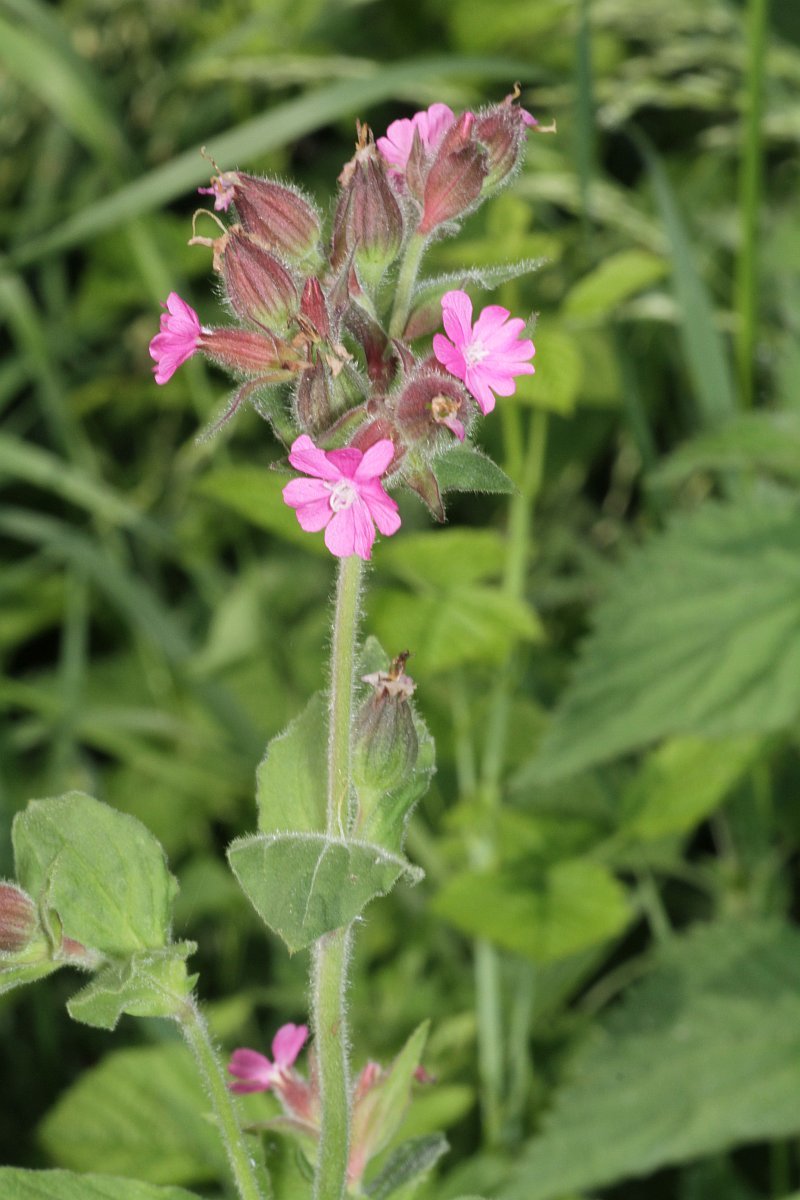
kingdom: Plantae
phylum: Tracheophyta
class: Magnoliopsida
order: Caryophyllales
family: Caryophyllaceae
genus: Silene
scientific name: Silene dioica
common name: Red campion
